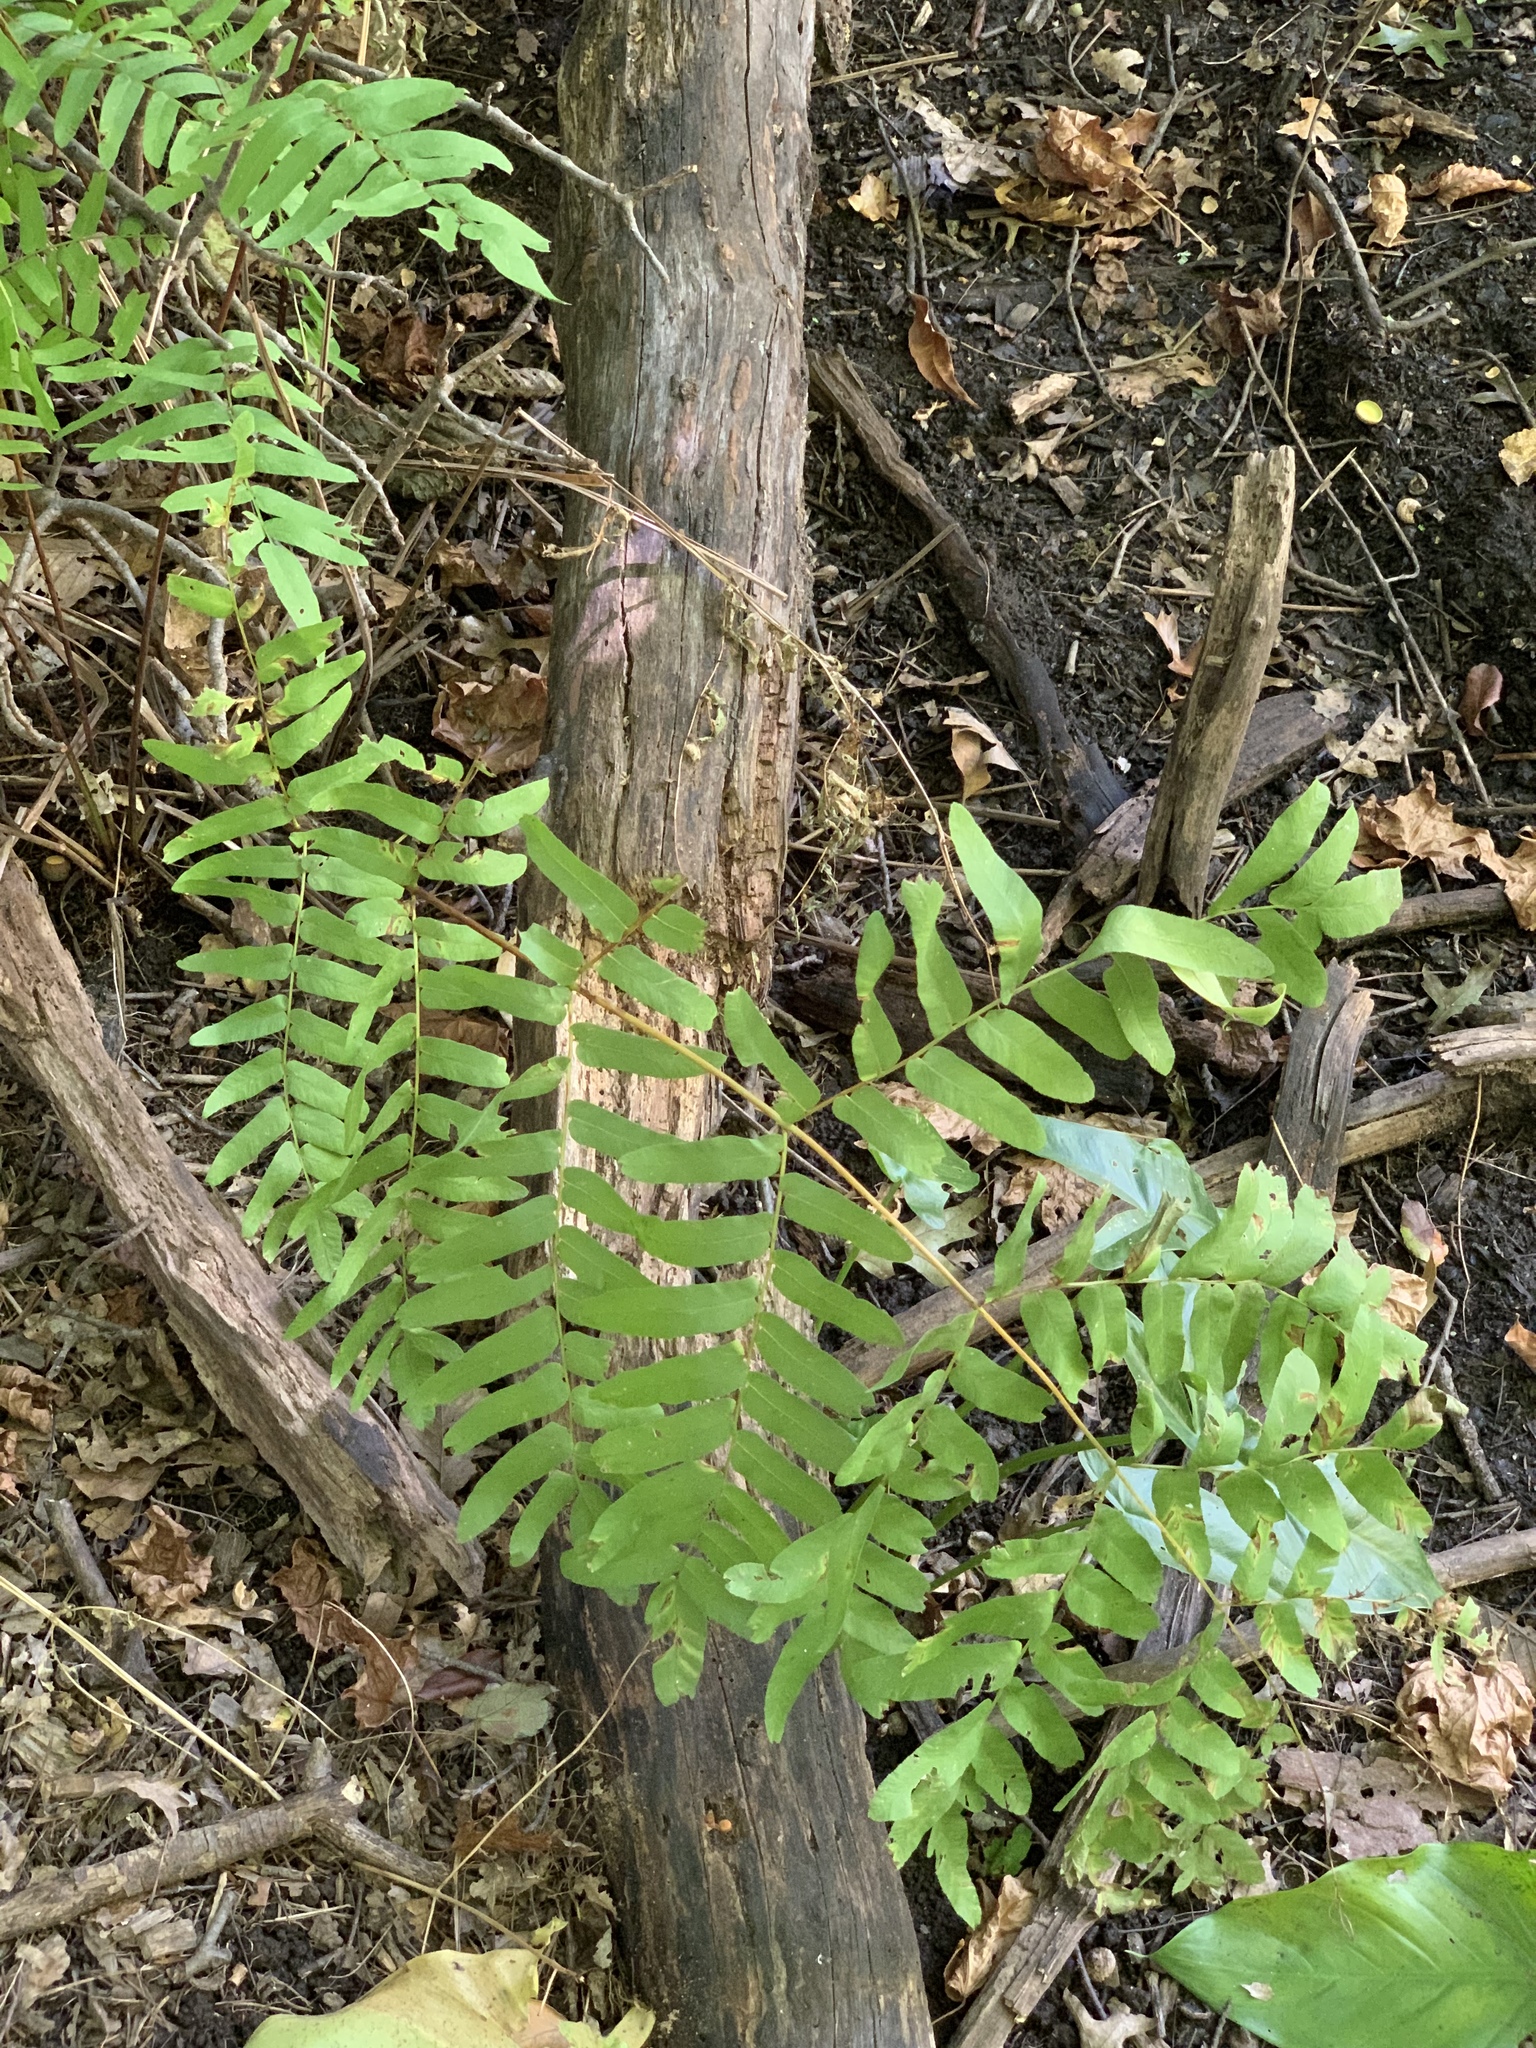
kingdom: Plantae
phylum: Tracheophyta
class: Polypodiopsida
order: Osmundales
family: Osmundaceae
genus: Osmunda
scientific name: Osmunda spectabilis
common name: American royal fern
